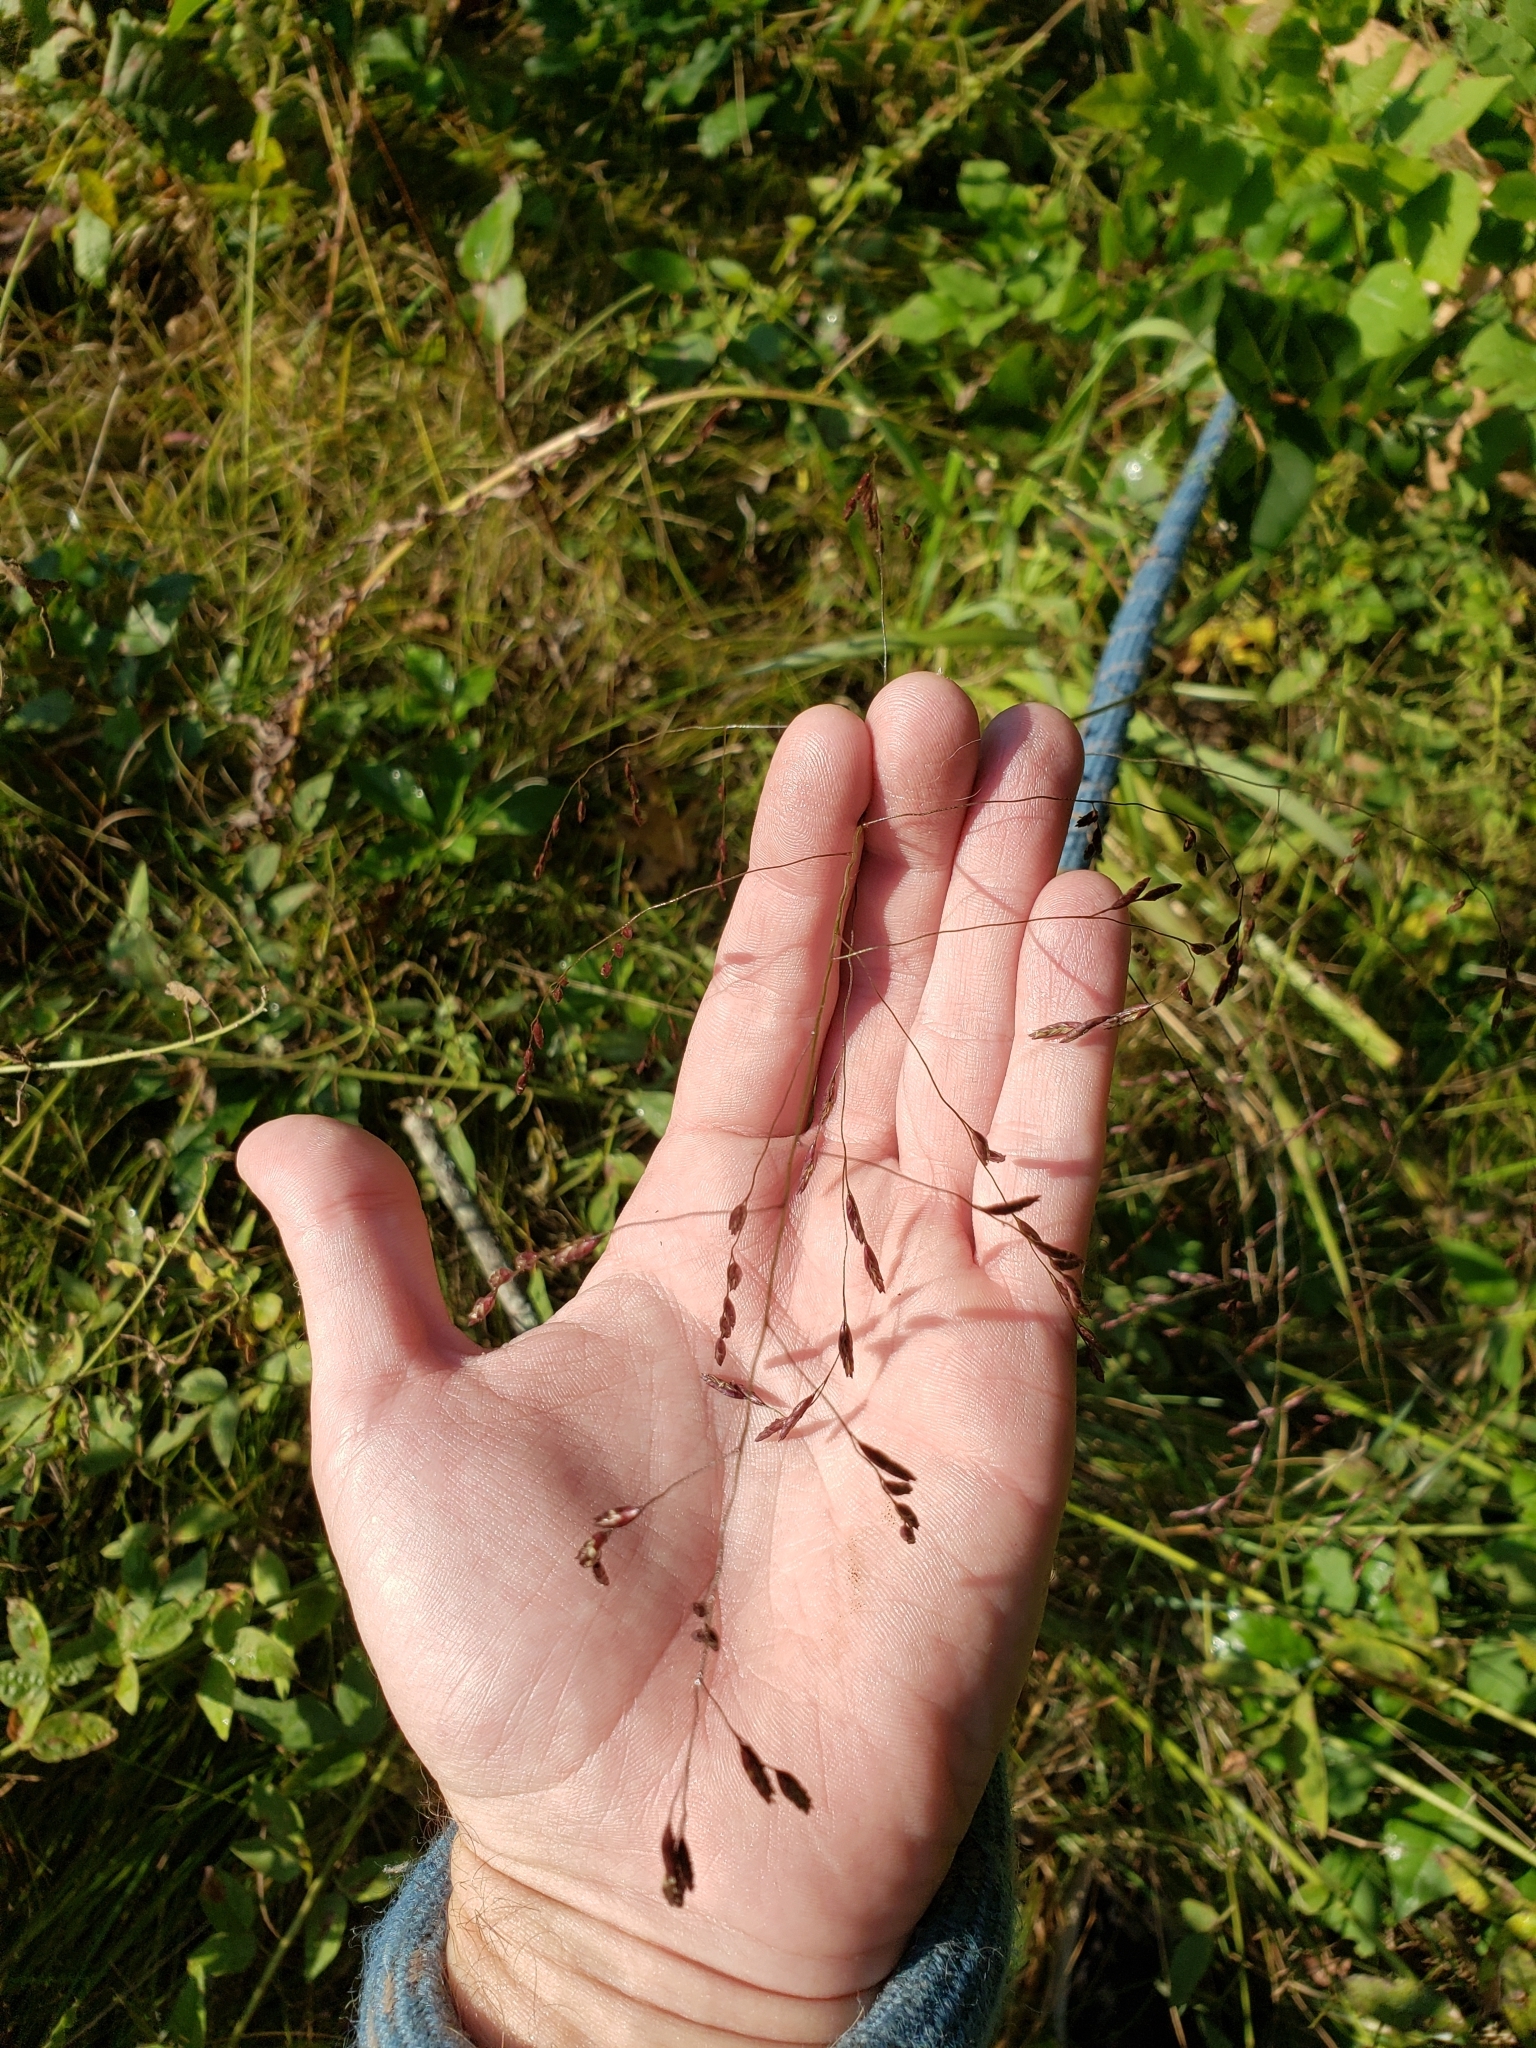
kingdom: Plantae
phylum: Tracheophyta
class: Liliopsida
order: Poales
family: Poaceae
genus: Tridens
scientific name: Tridens flavus
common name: Purpletop
